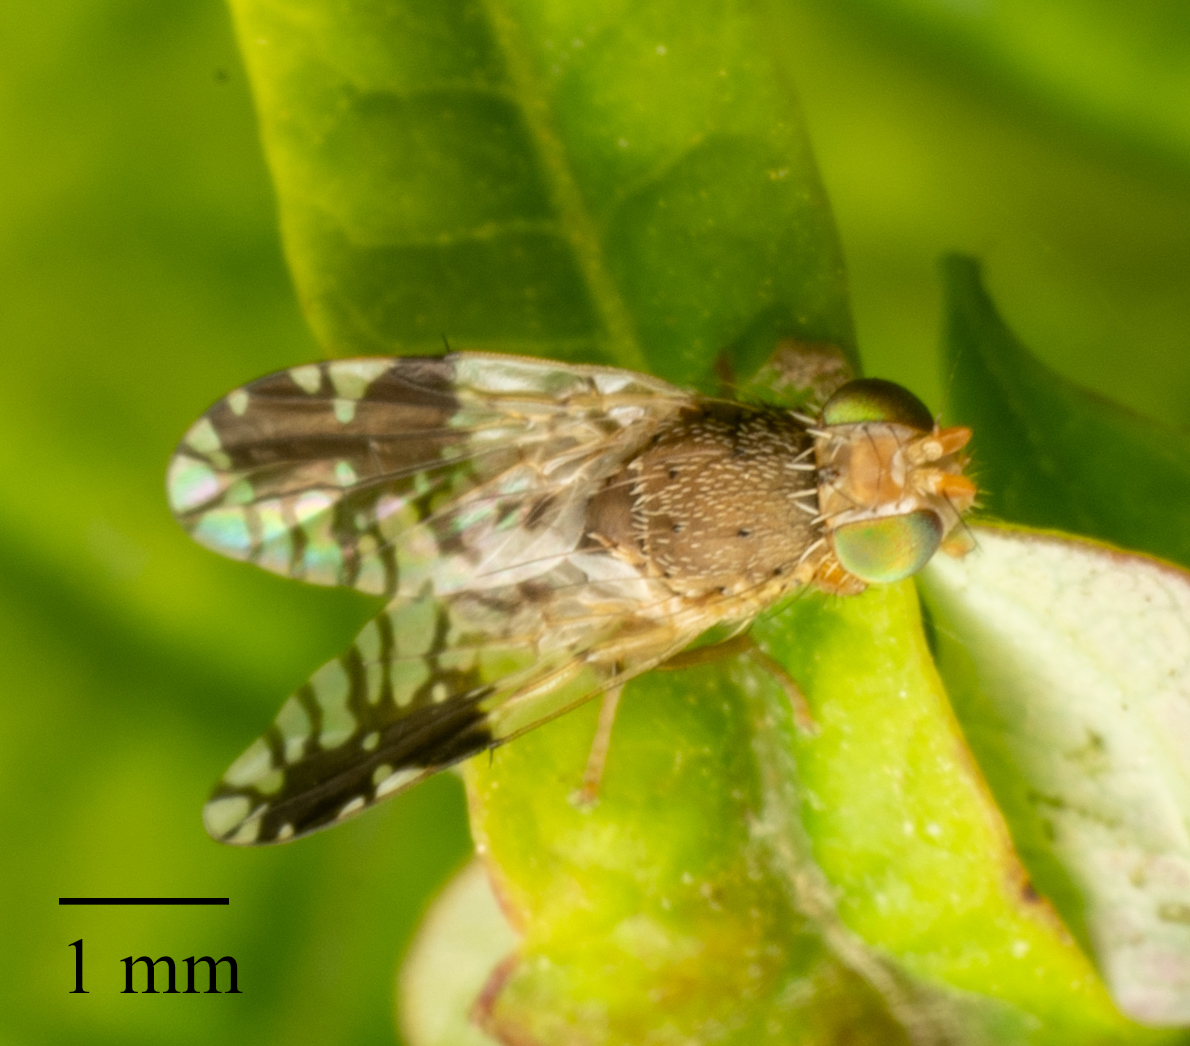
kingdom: Animalia
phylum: Arthropoda
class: Insecta
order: Diptera
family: Tephritidae
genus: Tephritis
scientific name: Tephritis divisa
